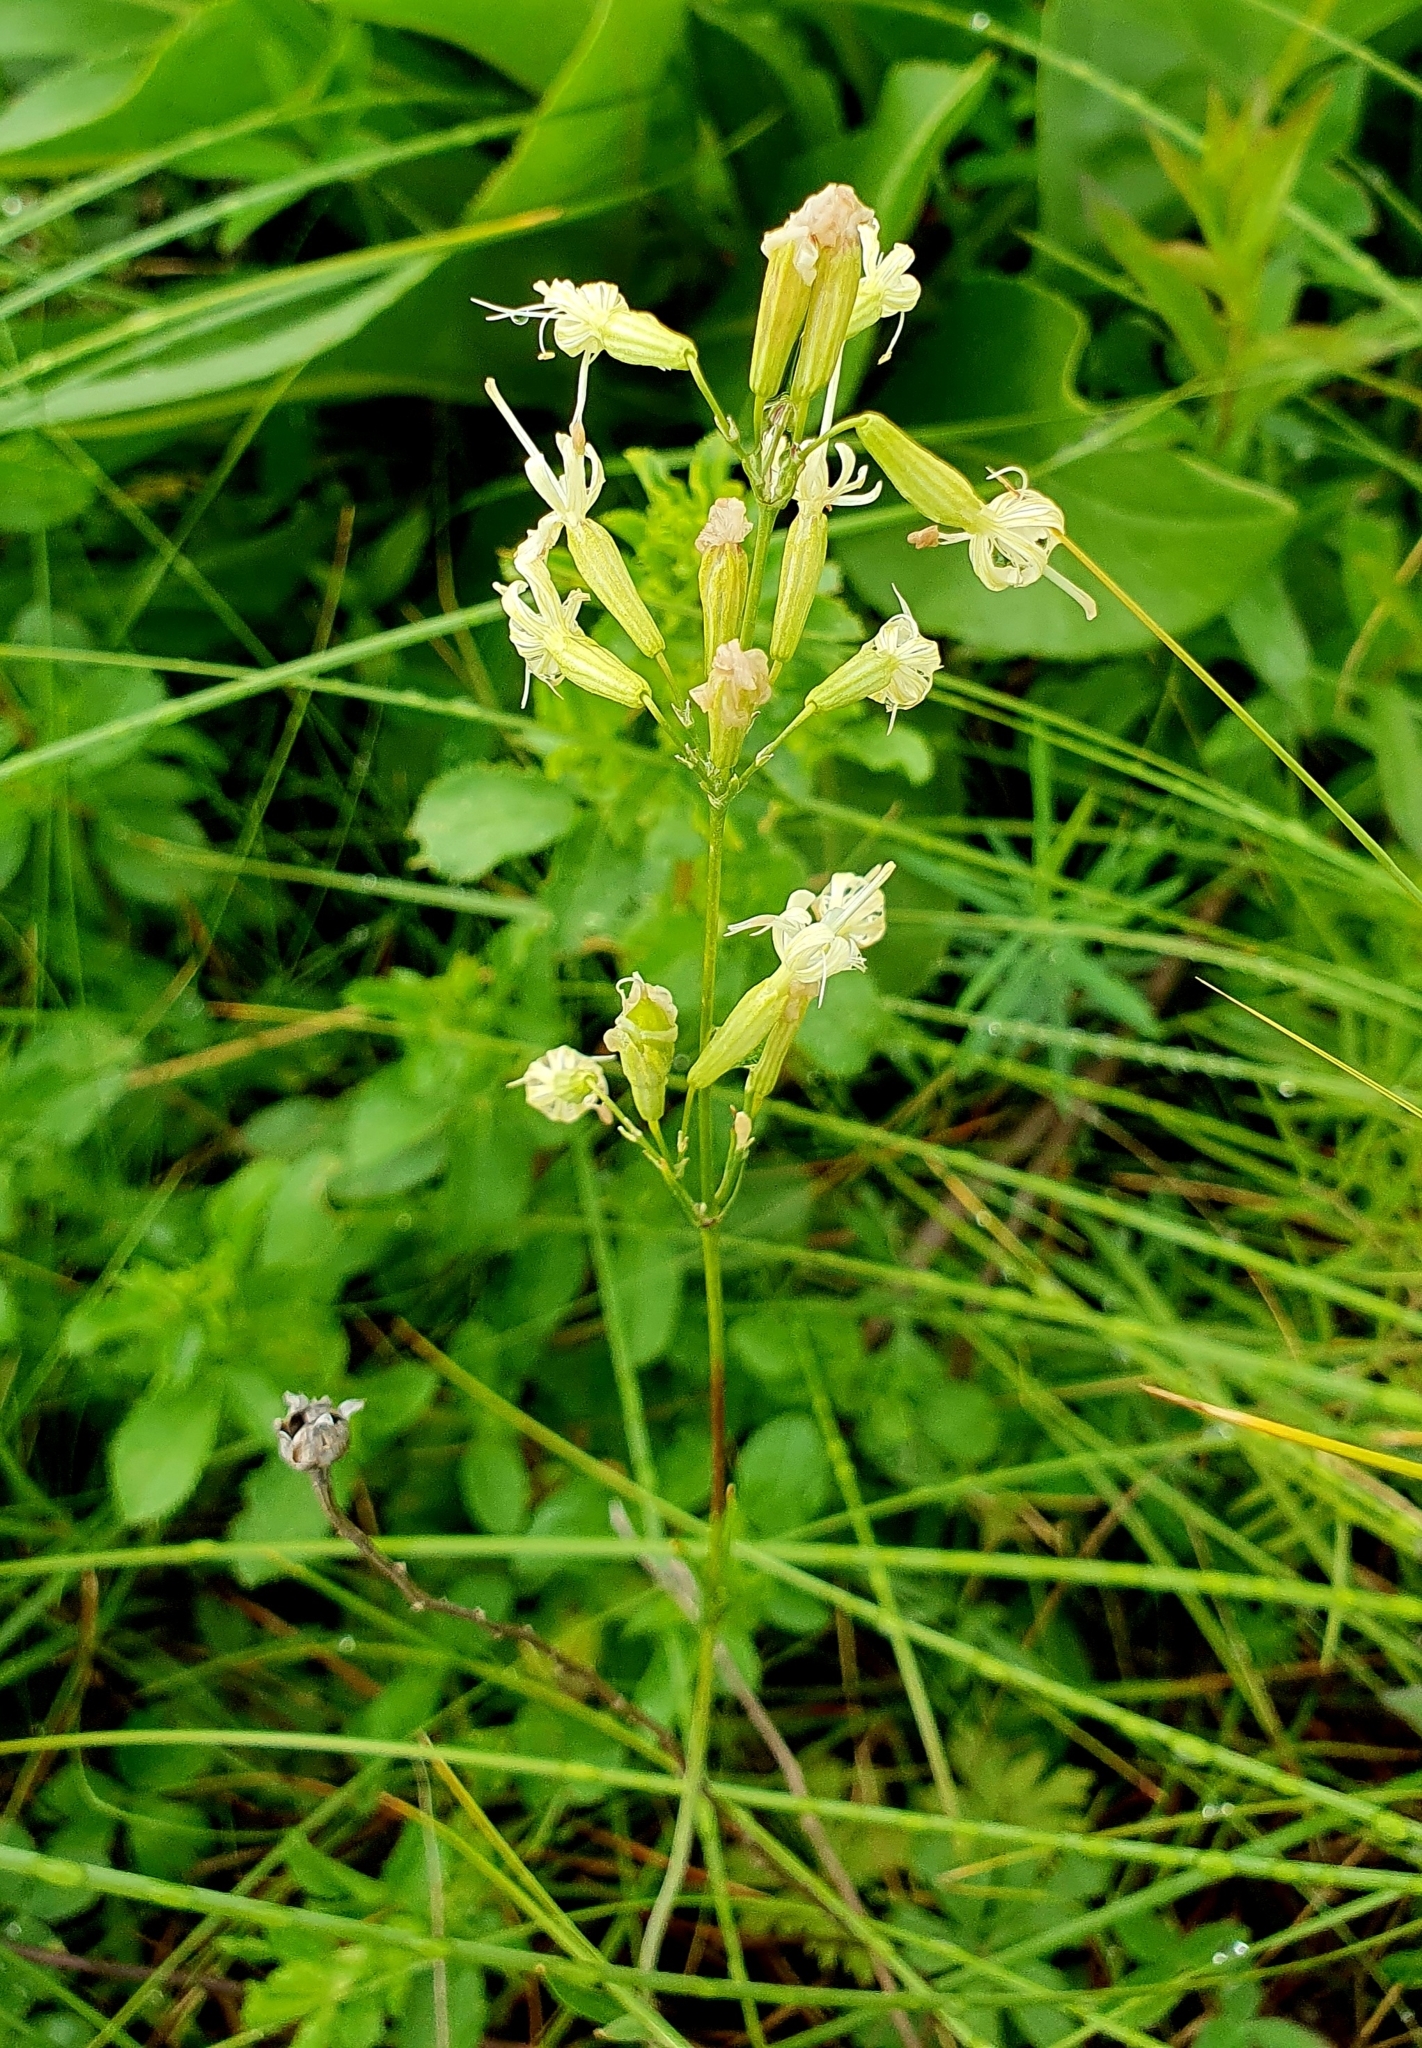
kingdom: Plantae
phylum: Tracheophyta
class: Magnoliopsida
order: Caryophyllales
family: Caryophyllaceae
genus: Silene
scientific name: Silene multiflora
